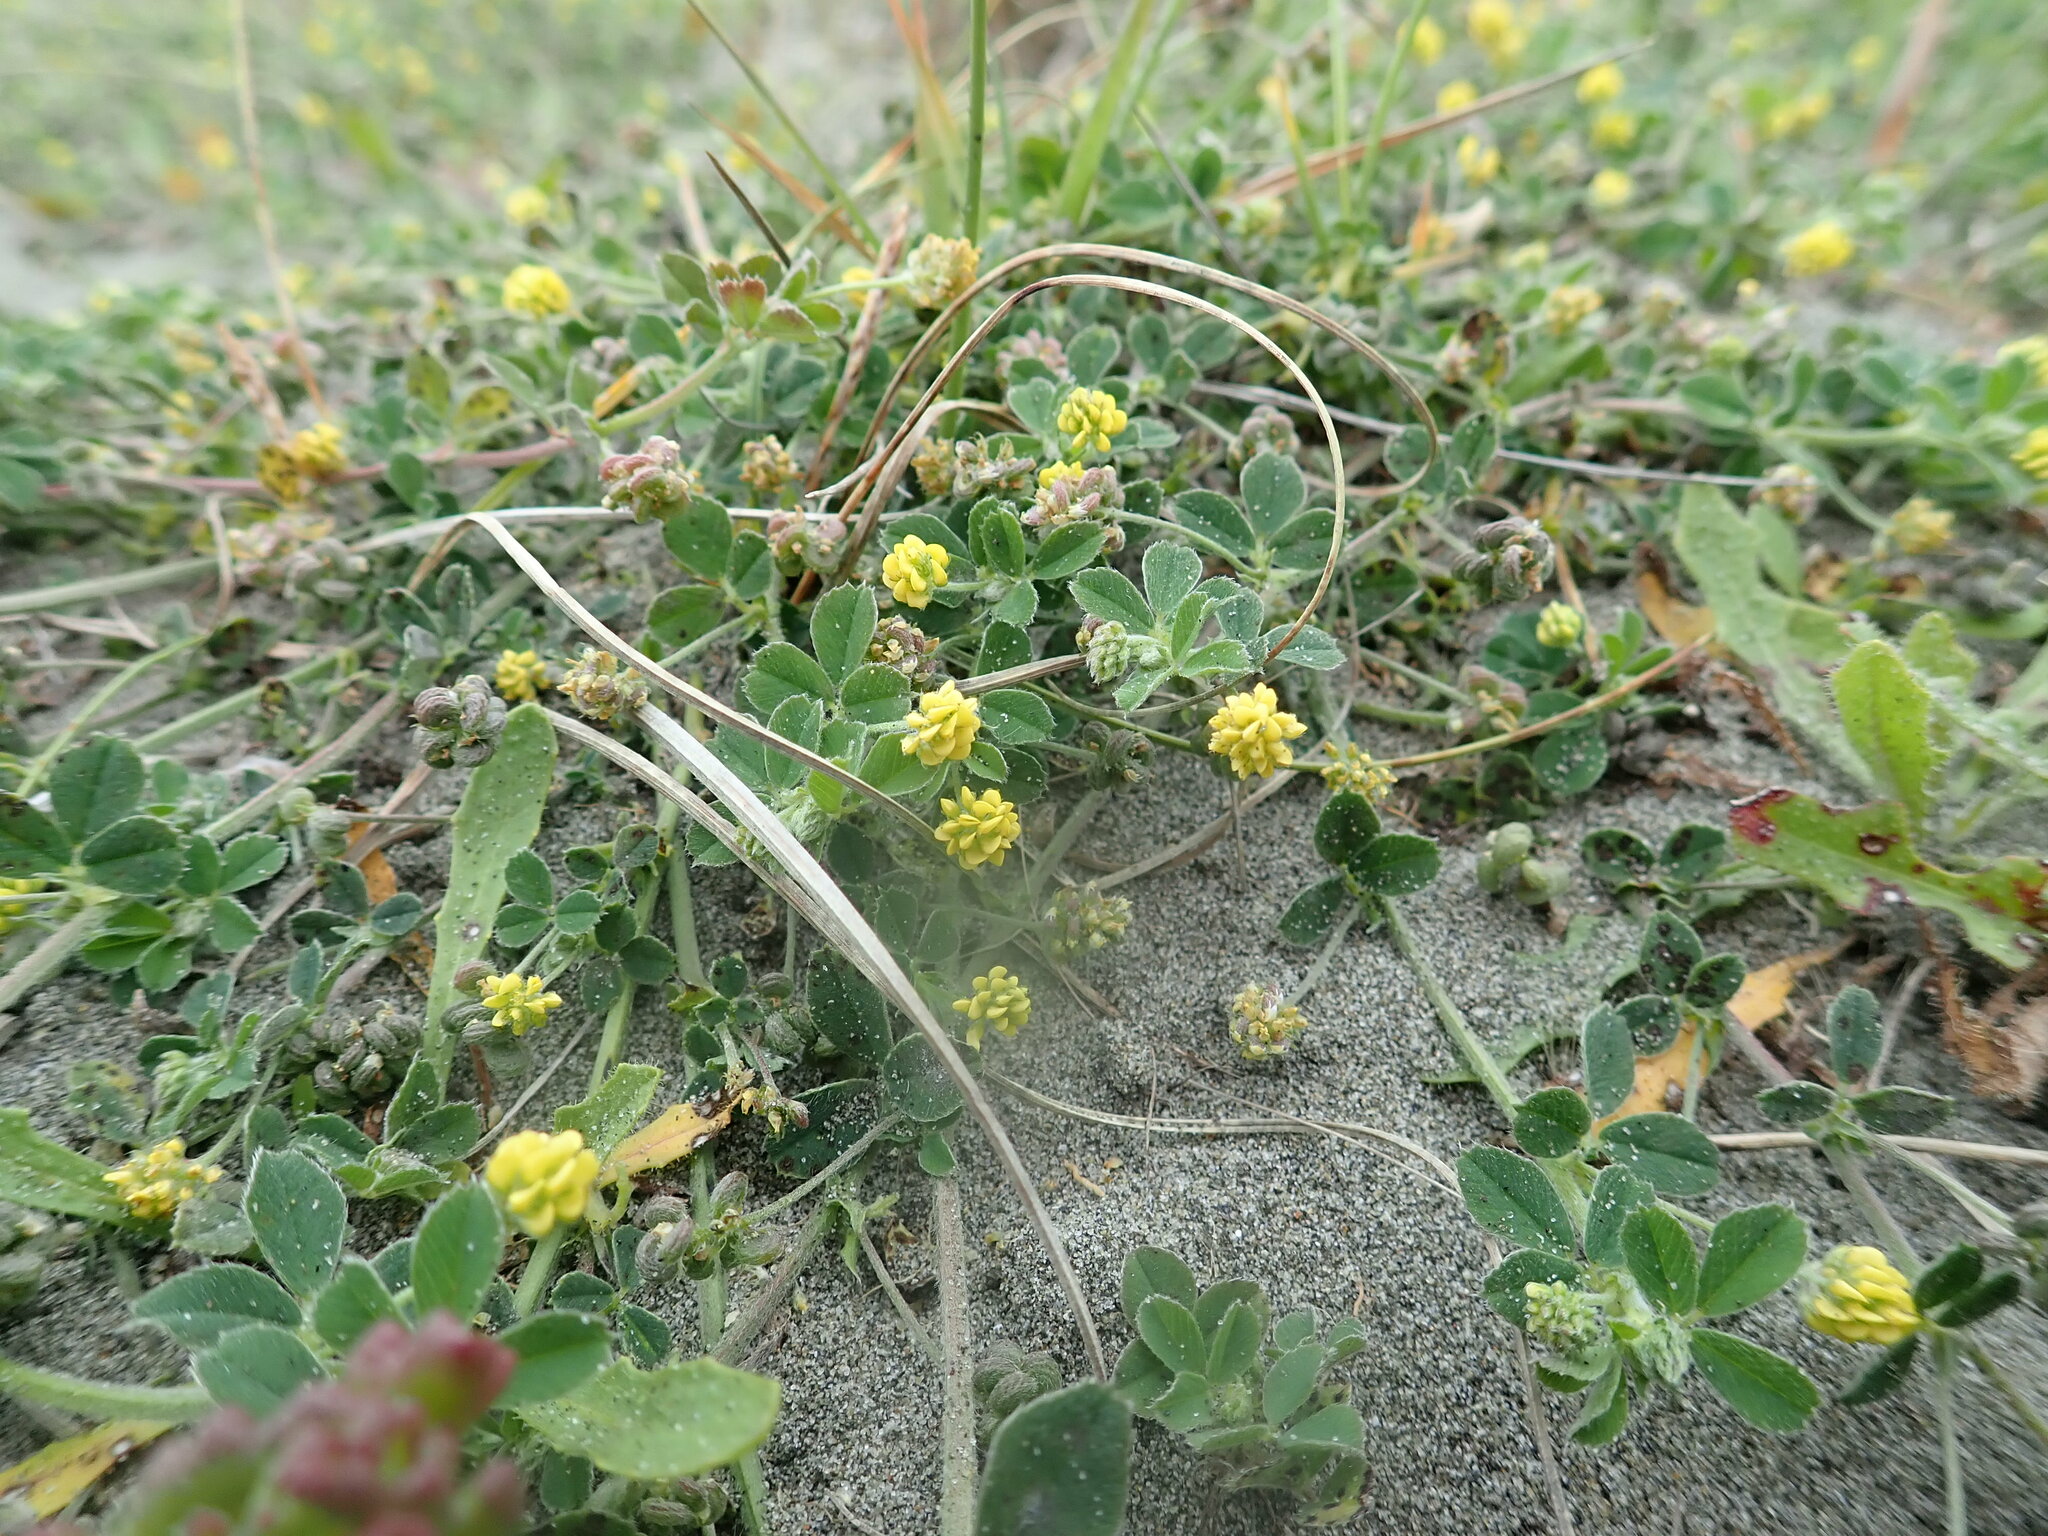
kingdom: Plantae
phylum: Tracheophyta
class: Magnoliopsida
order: Fabales
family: Fabaceae
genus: Medicago
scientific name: Medicago lupulina
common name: Black medick
